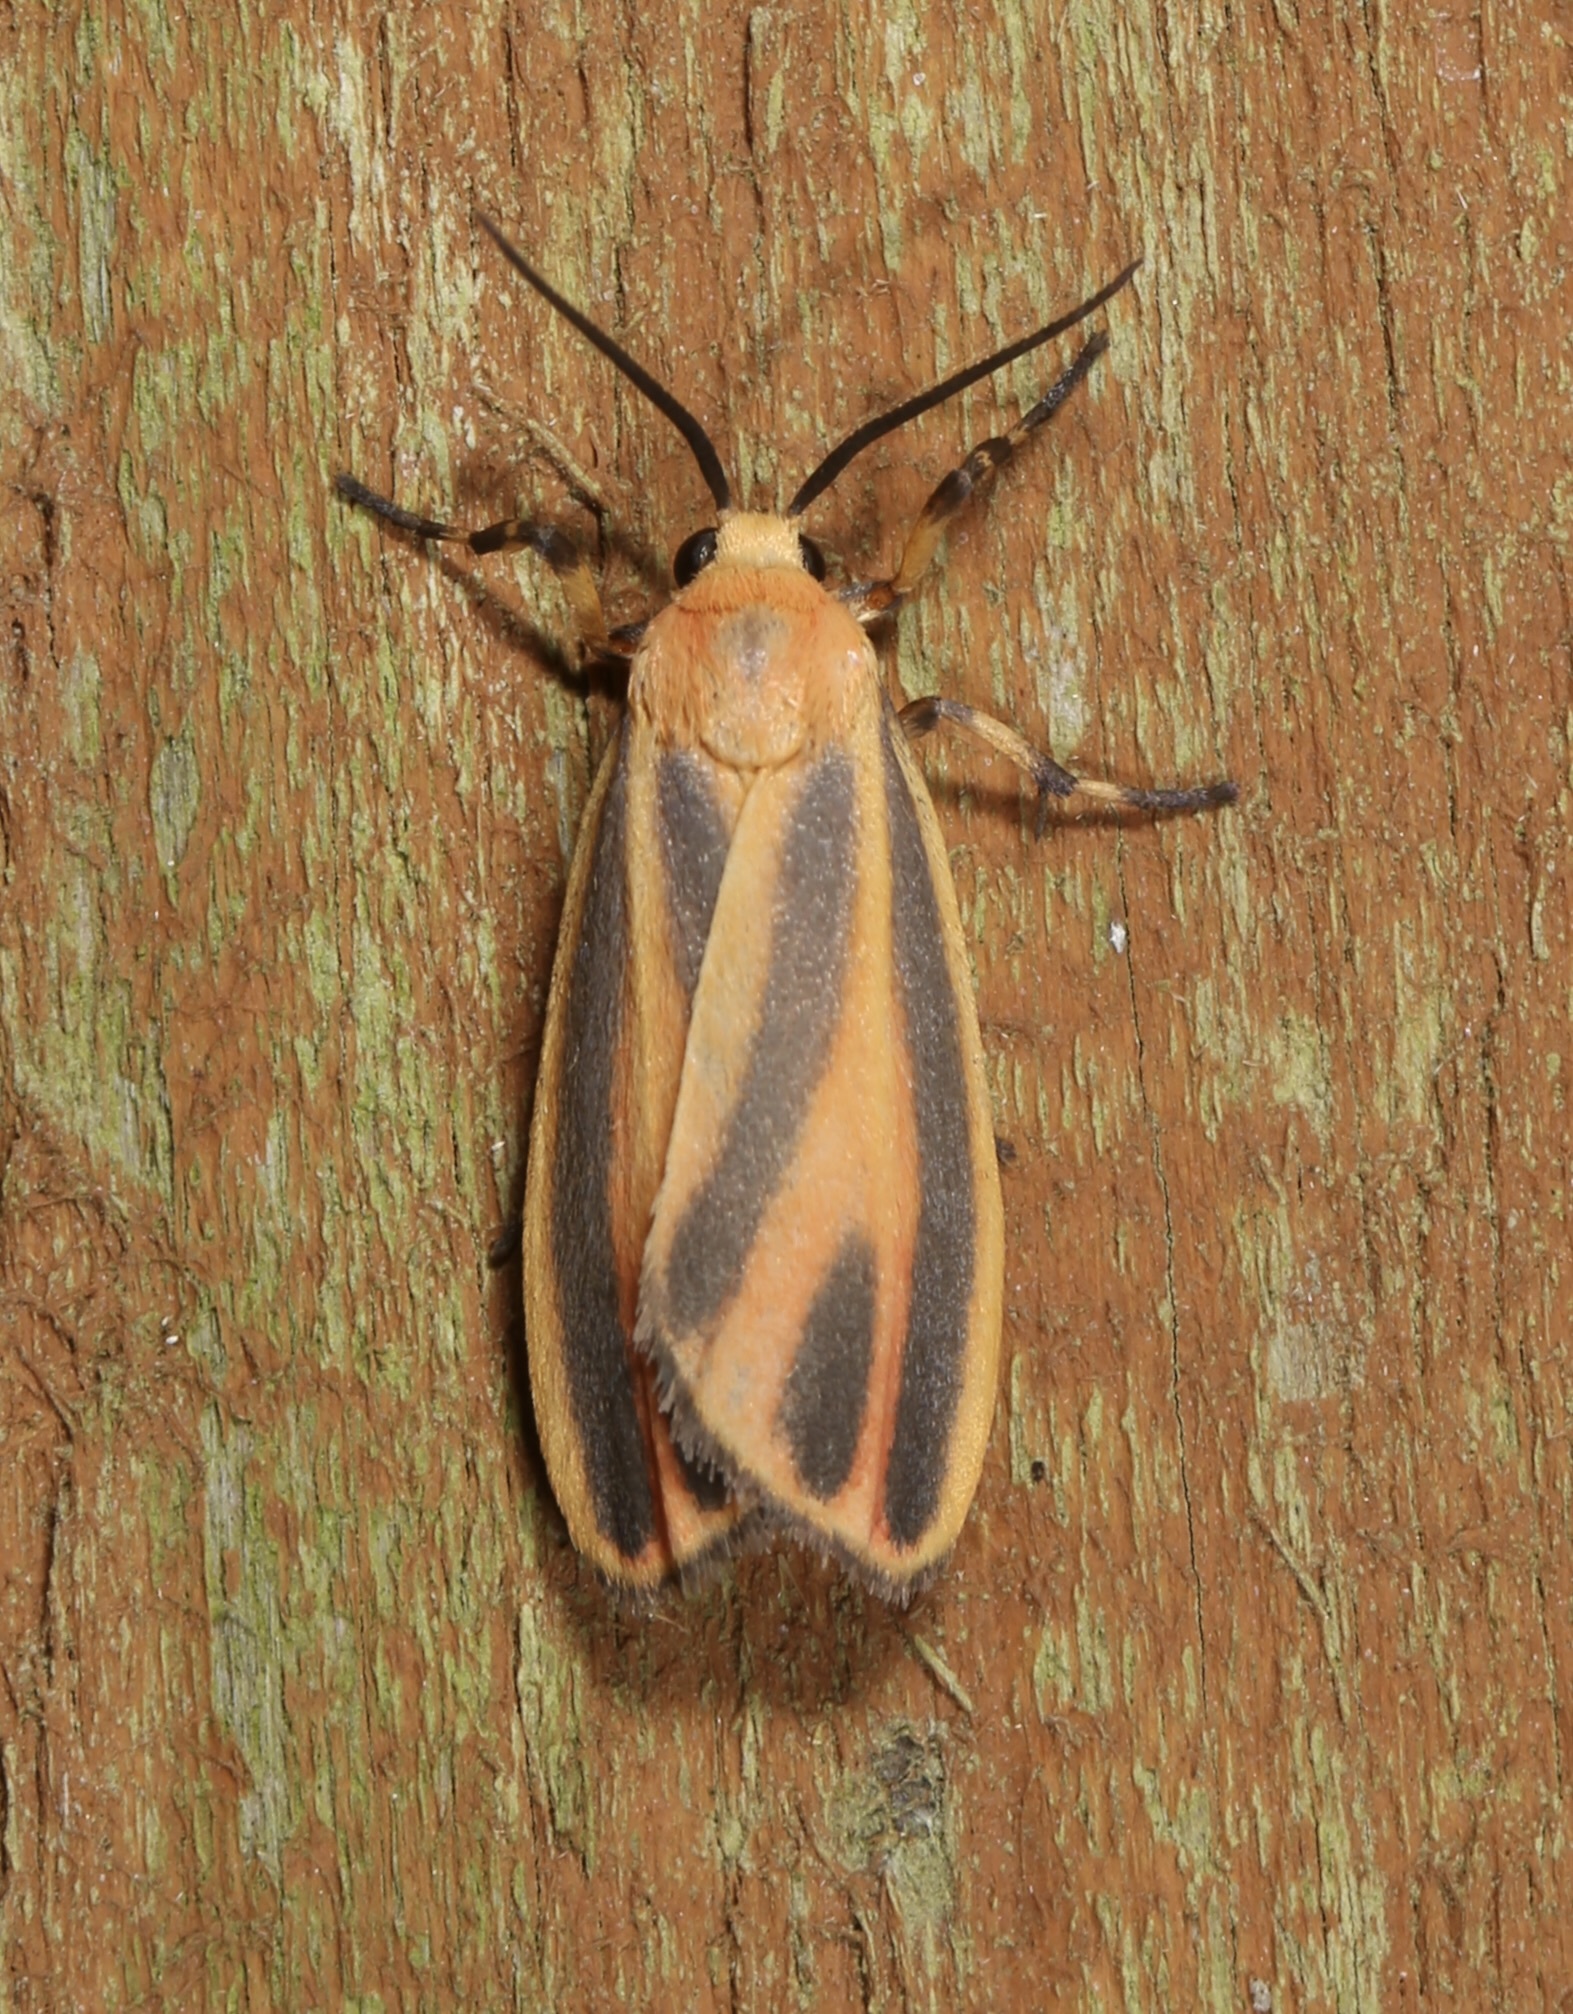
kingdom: Animalia
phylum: Arthropoda
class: Insecta
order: Lepidoptera
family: Erebidae
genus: Hypoprepia
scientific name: Hypoprepia fucosa
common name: Painted lichen moth
